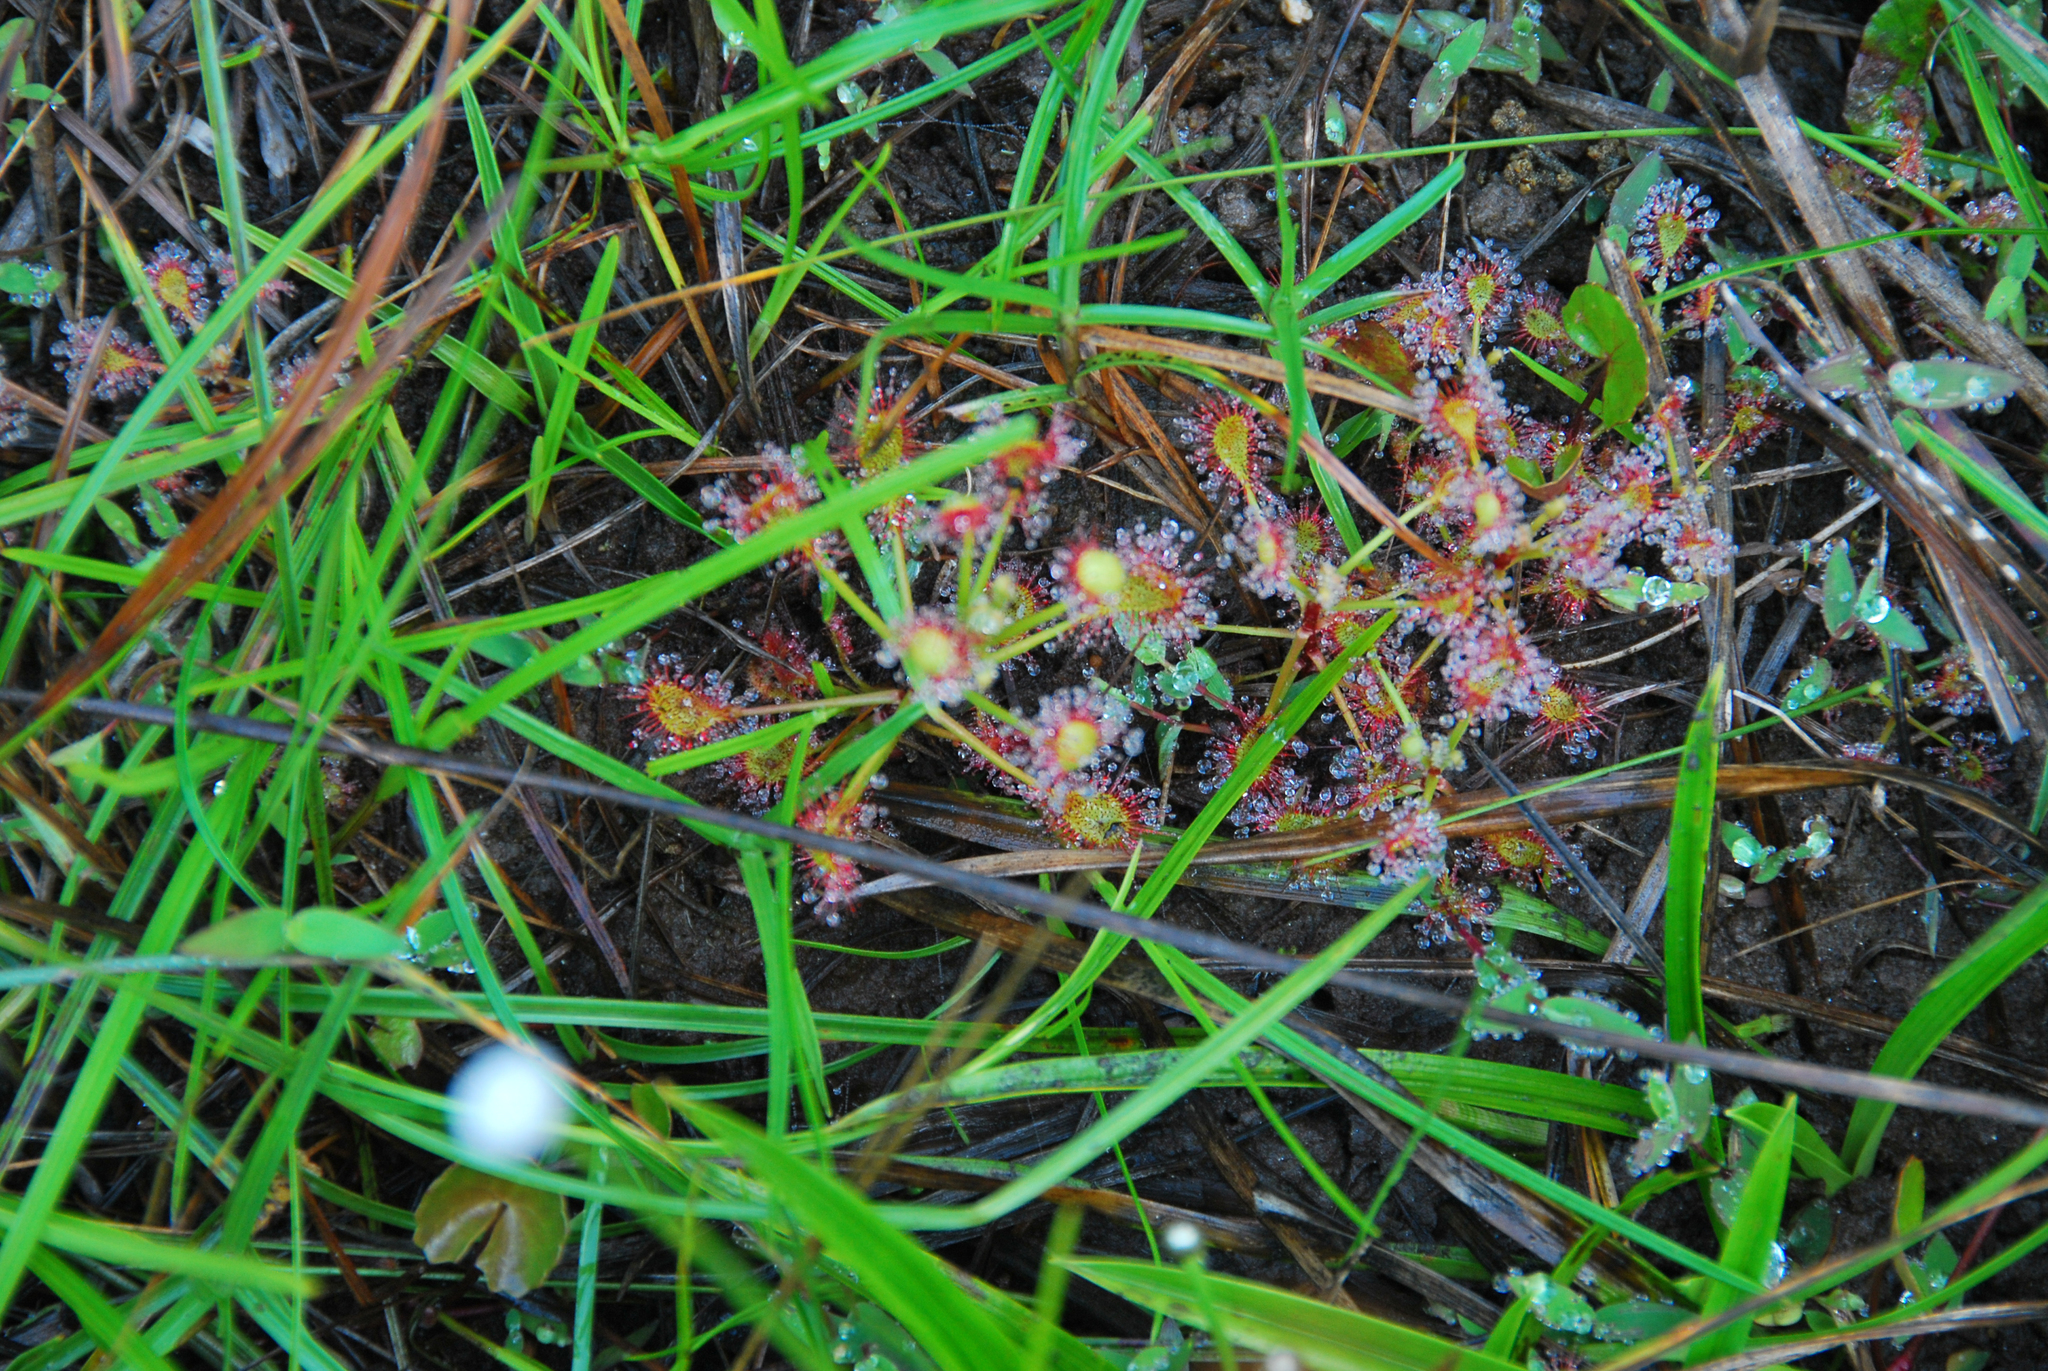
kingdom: Plantae
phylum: Tracheophyta
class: Magnoliopsida
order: Caryophyllales
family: Droseraceae
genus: Drosera
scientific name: Drosera madagascariensis
